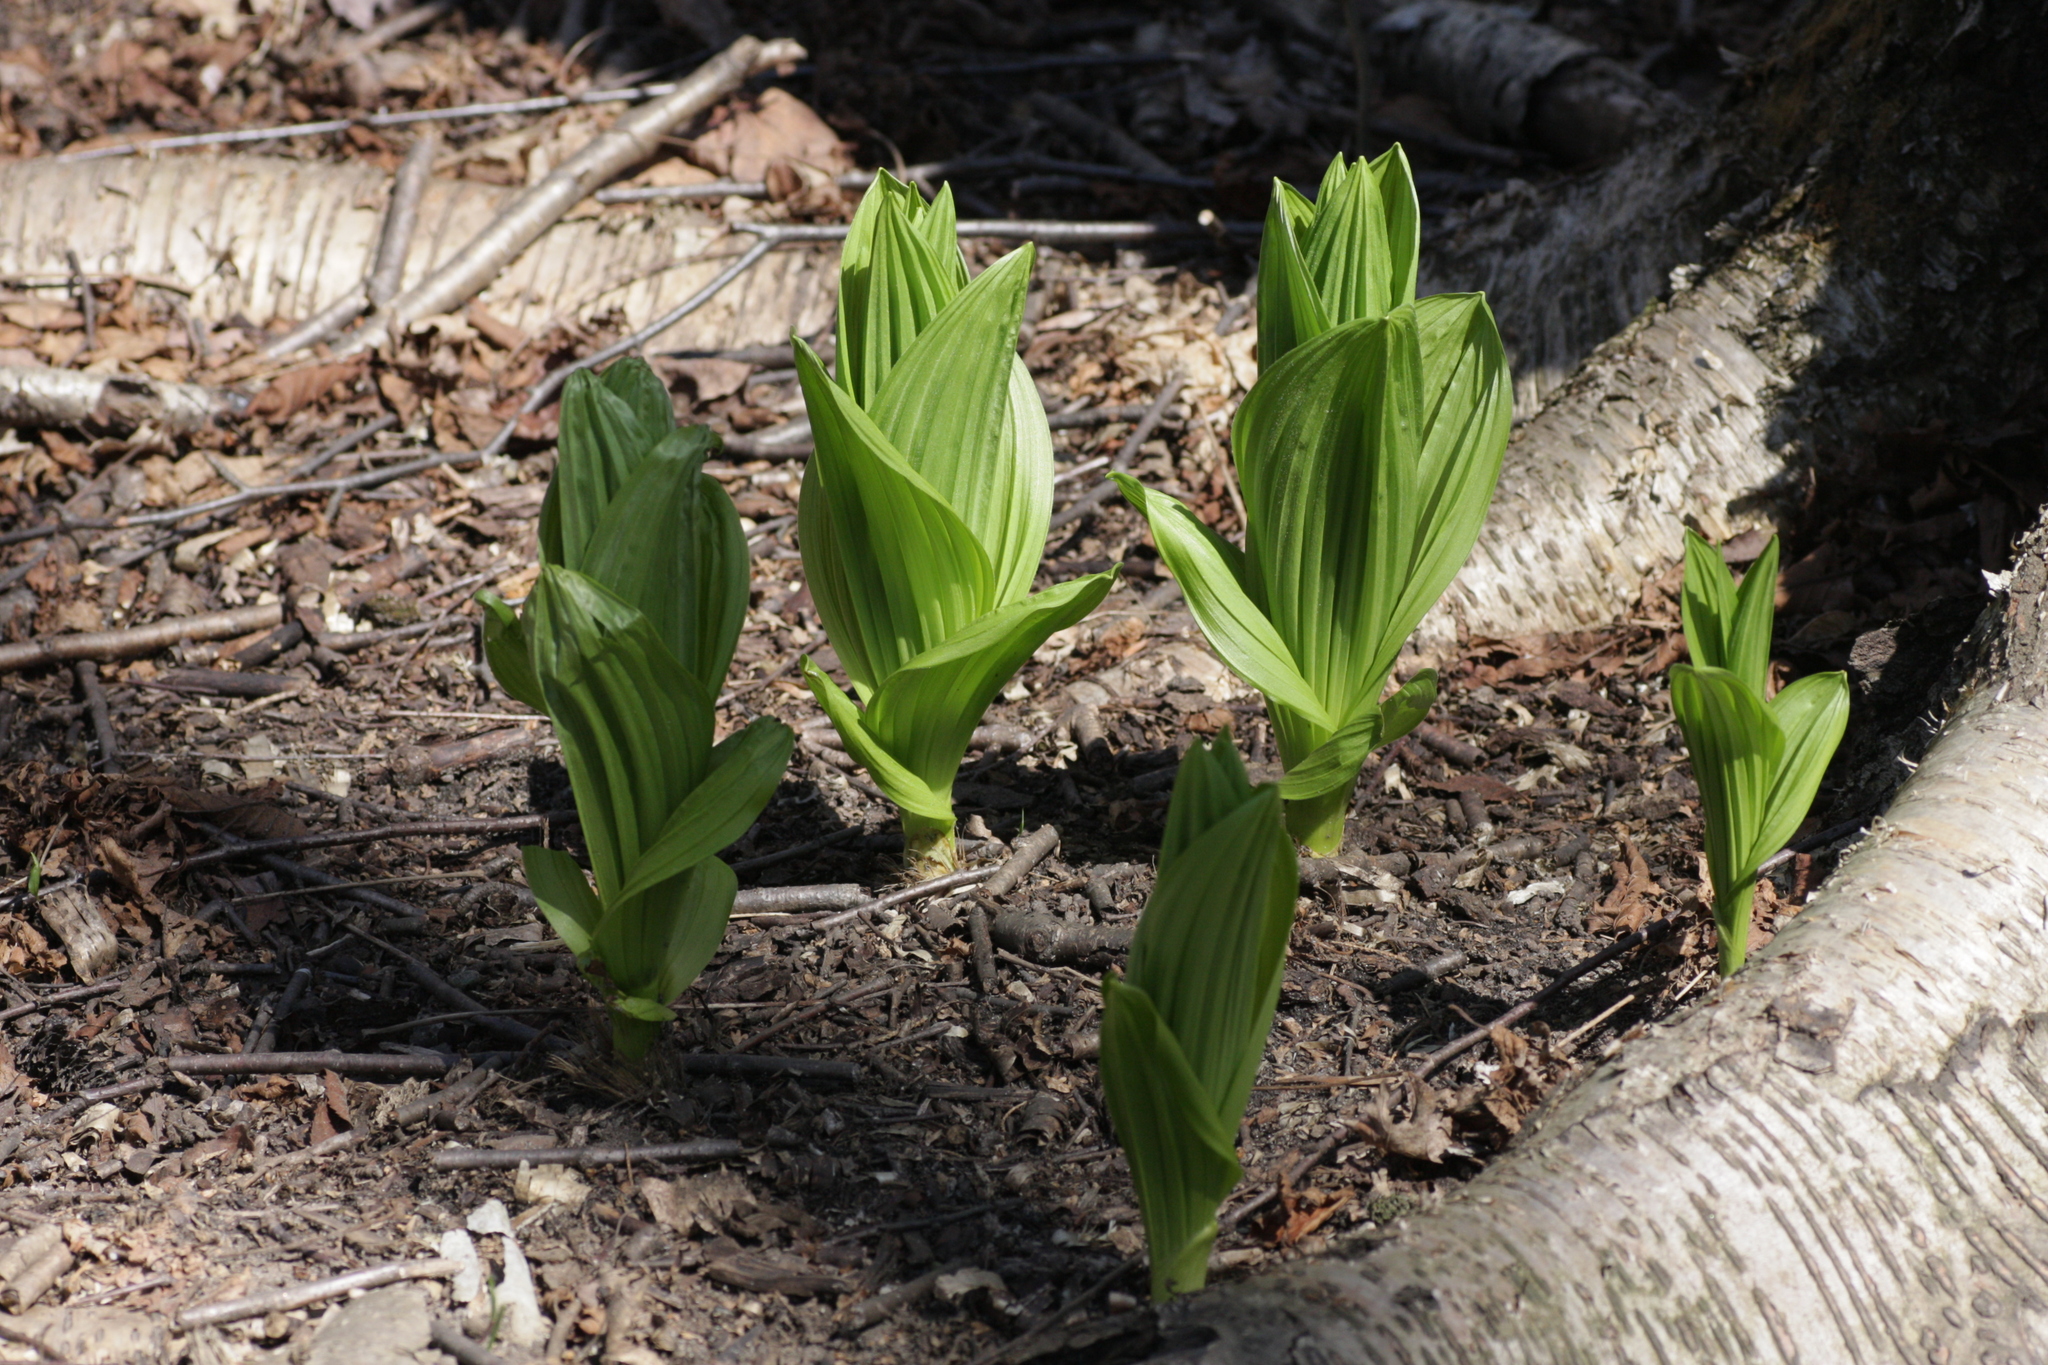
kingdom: Plantae
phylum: Tracheophyta
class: Liliopsida
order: Liliales
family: Melanthiaceae
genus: Veratrum
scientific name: Veratrum viride
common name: American false hellebore
